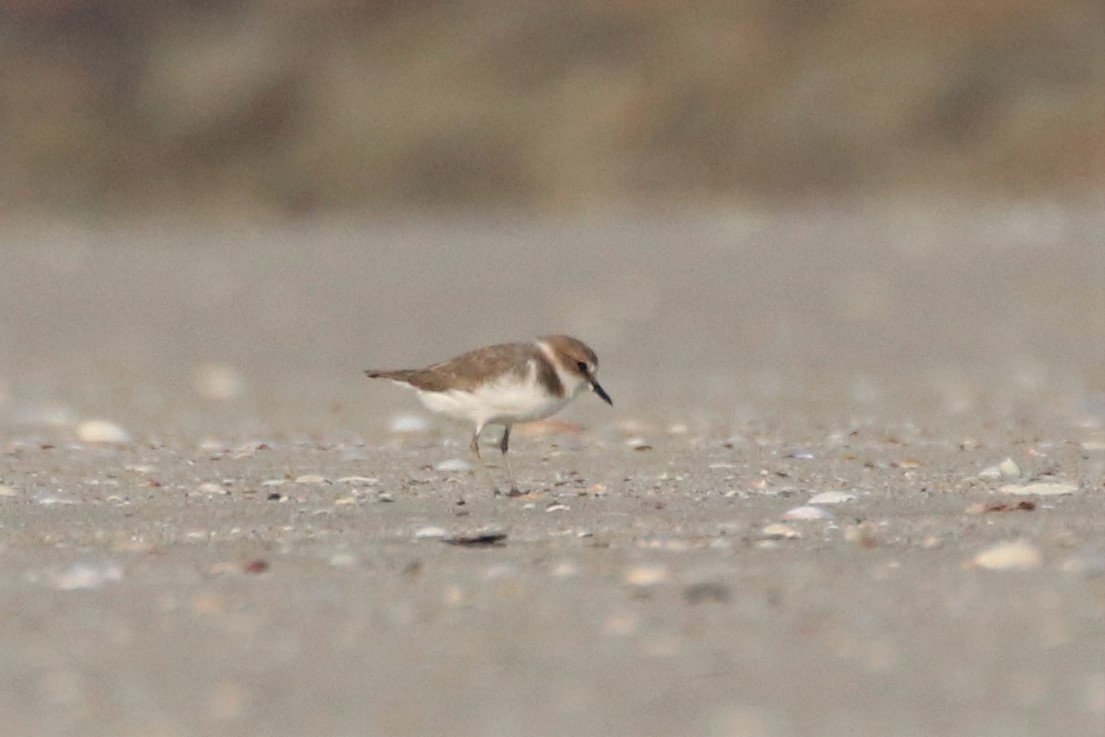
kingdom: Animalia
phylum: Chordata
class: Aves
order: Charadriiformes
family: Charadriidae
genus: Charadrius
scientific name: Charadrius alexandrinus
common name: Kentish plover
